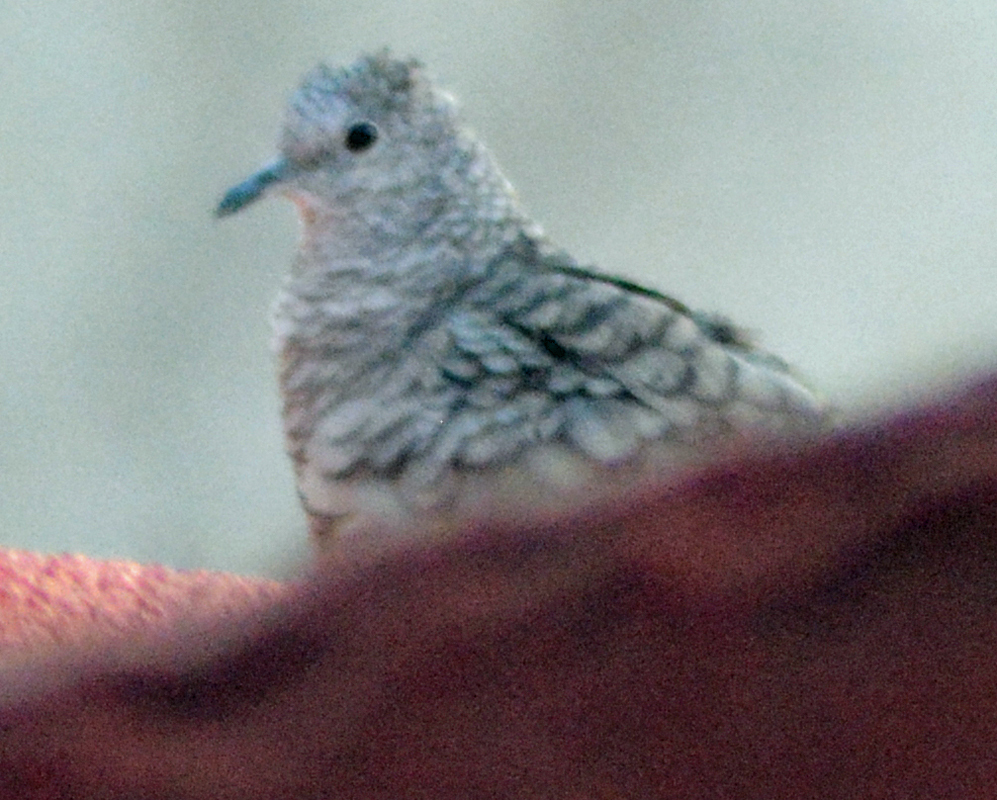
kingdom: Animalia
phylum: Chordata
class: Aves
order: Columbiformes
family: Columbidae
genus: Columbina
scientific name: Columbina inca
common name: Inca dove
